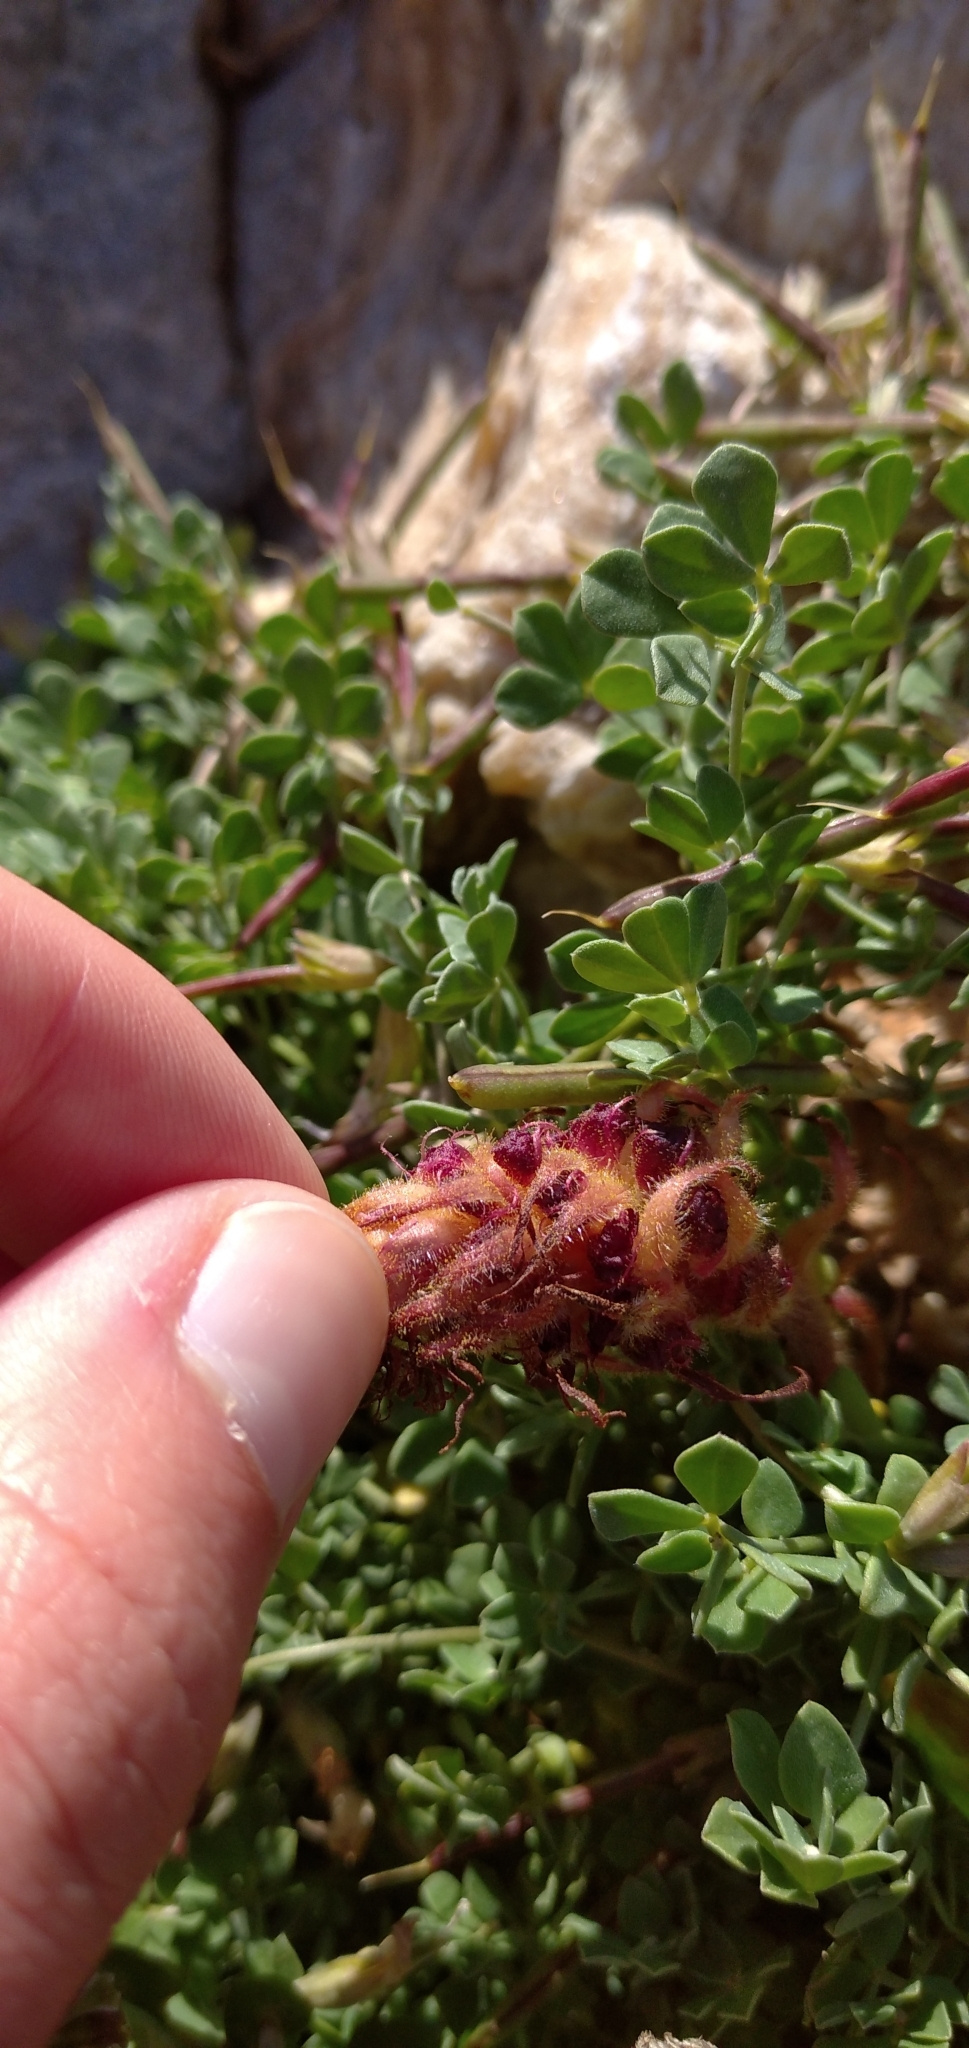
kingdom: Plantae
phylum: Tracheophyta
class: Magnoliopsida
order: Lamiales
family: Orobanchaceae
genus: Orobanche
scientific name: Orobanche sanguinea
